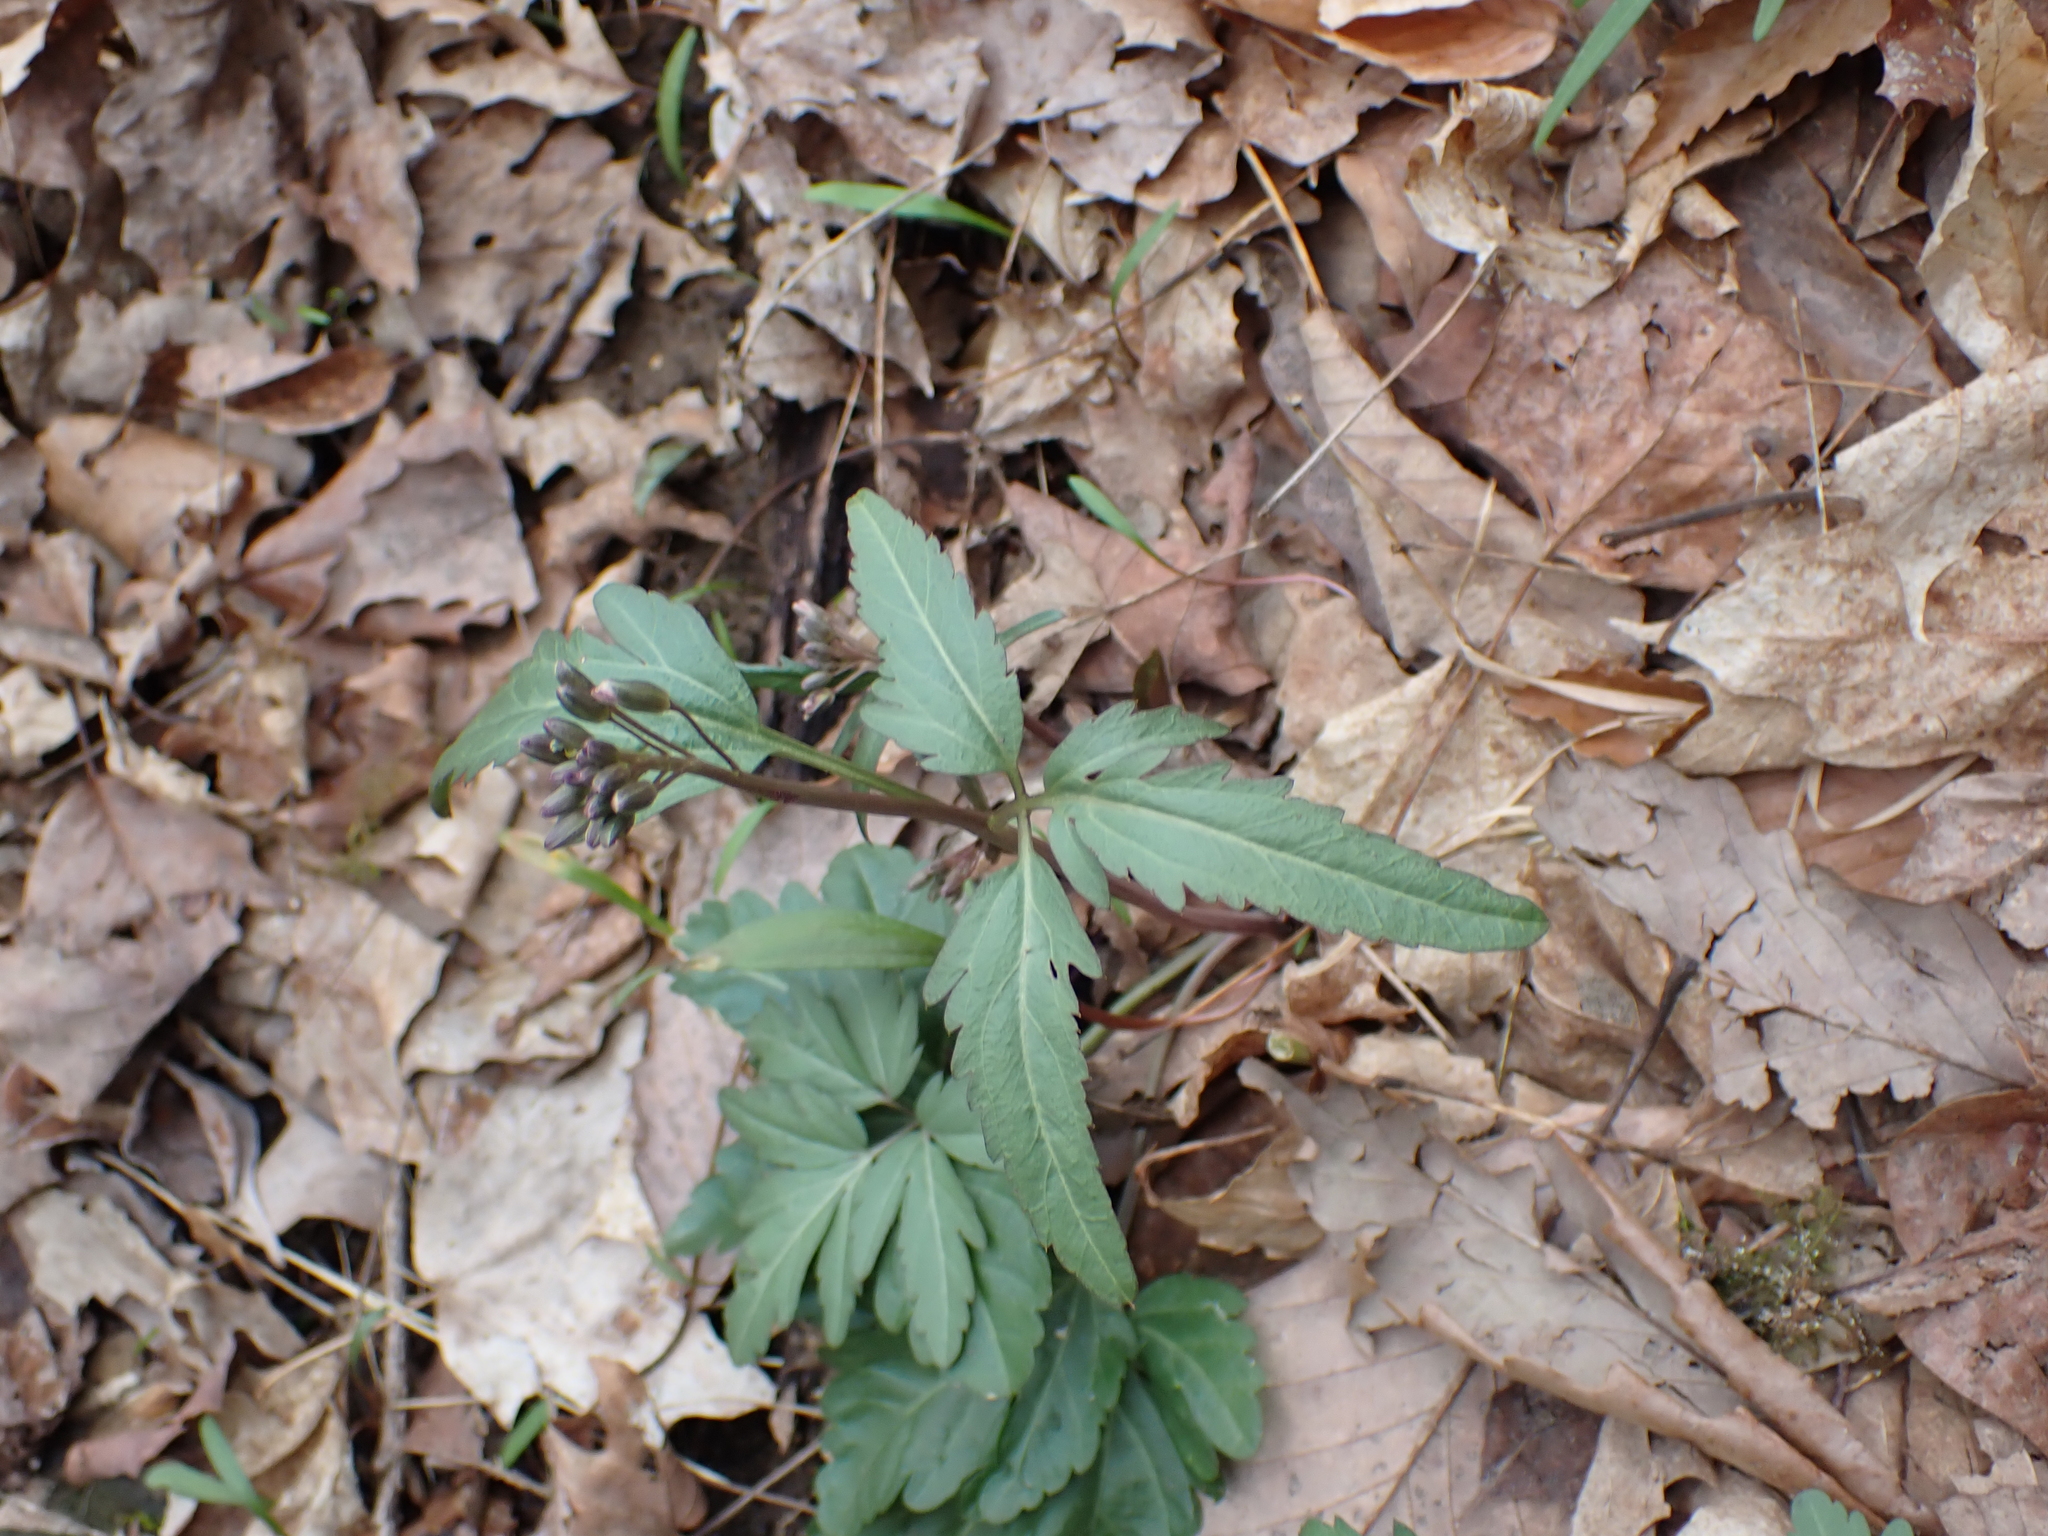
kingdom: Plantae
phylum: Tracheophyta
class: Magnoliopsida
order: Brassicales
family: Brassicaceae
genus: Cardamine
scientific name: Cardamine concatenata
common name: Cut-leaf toothcup
